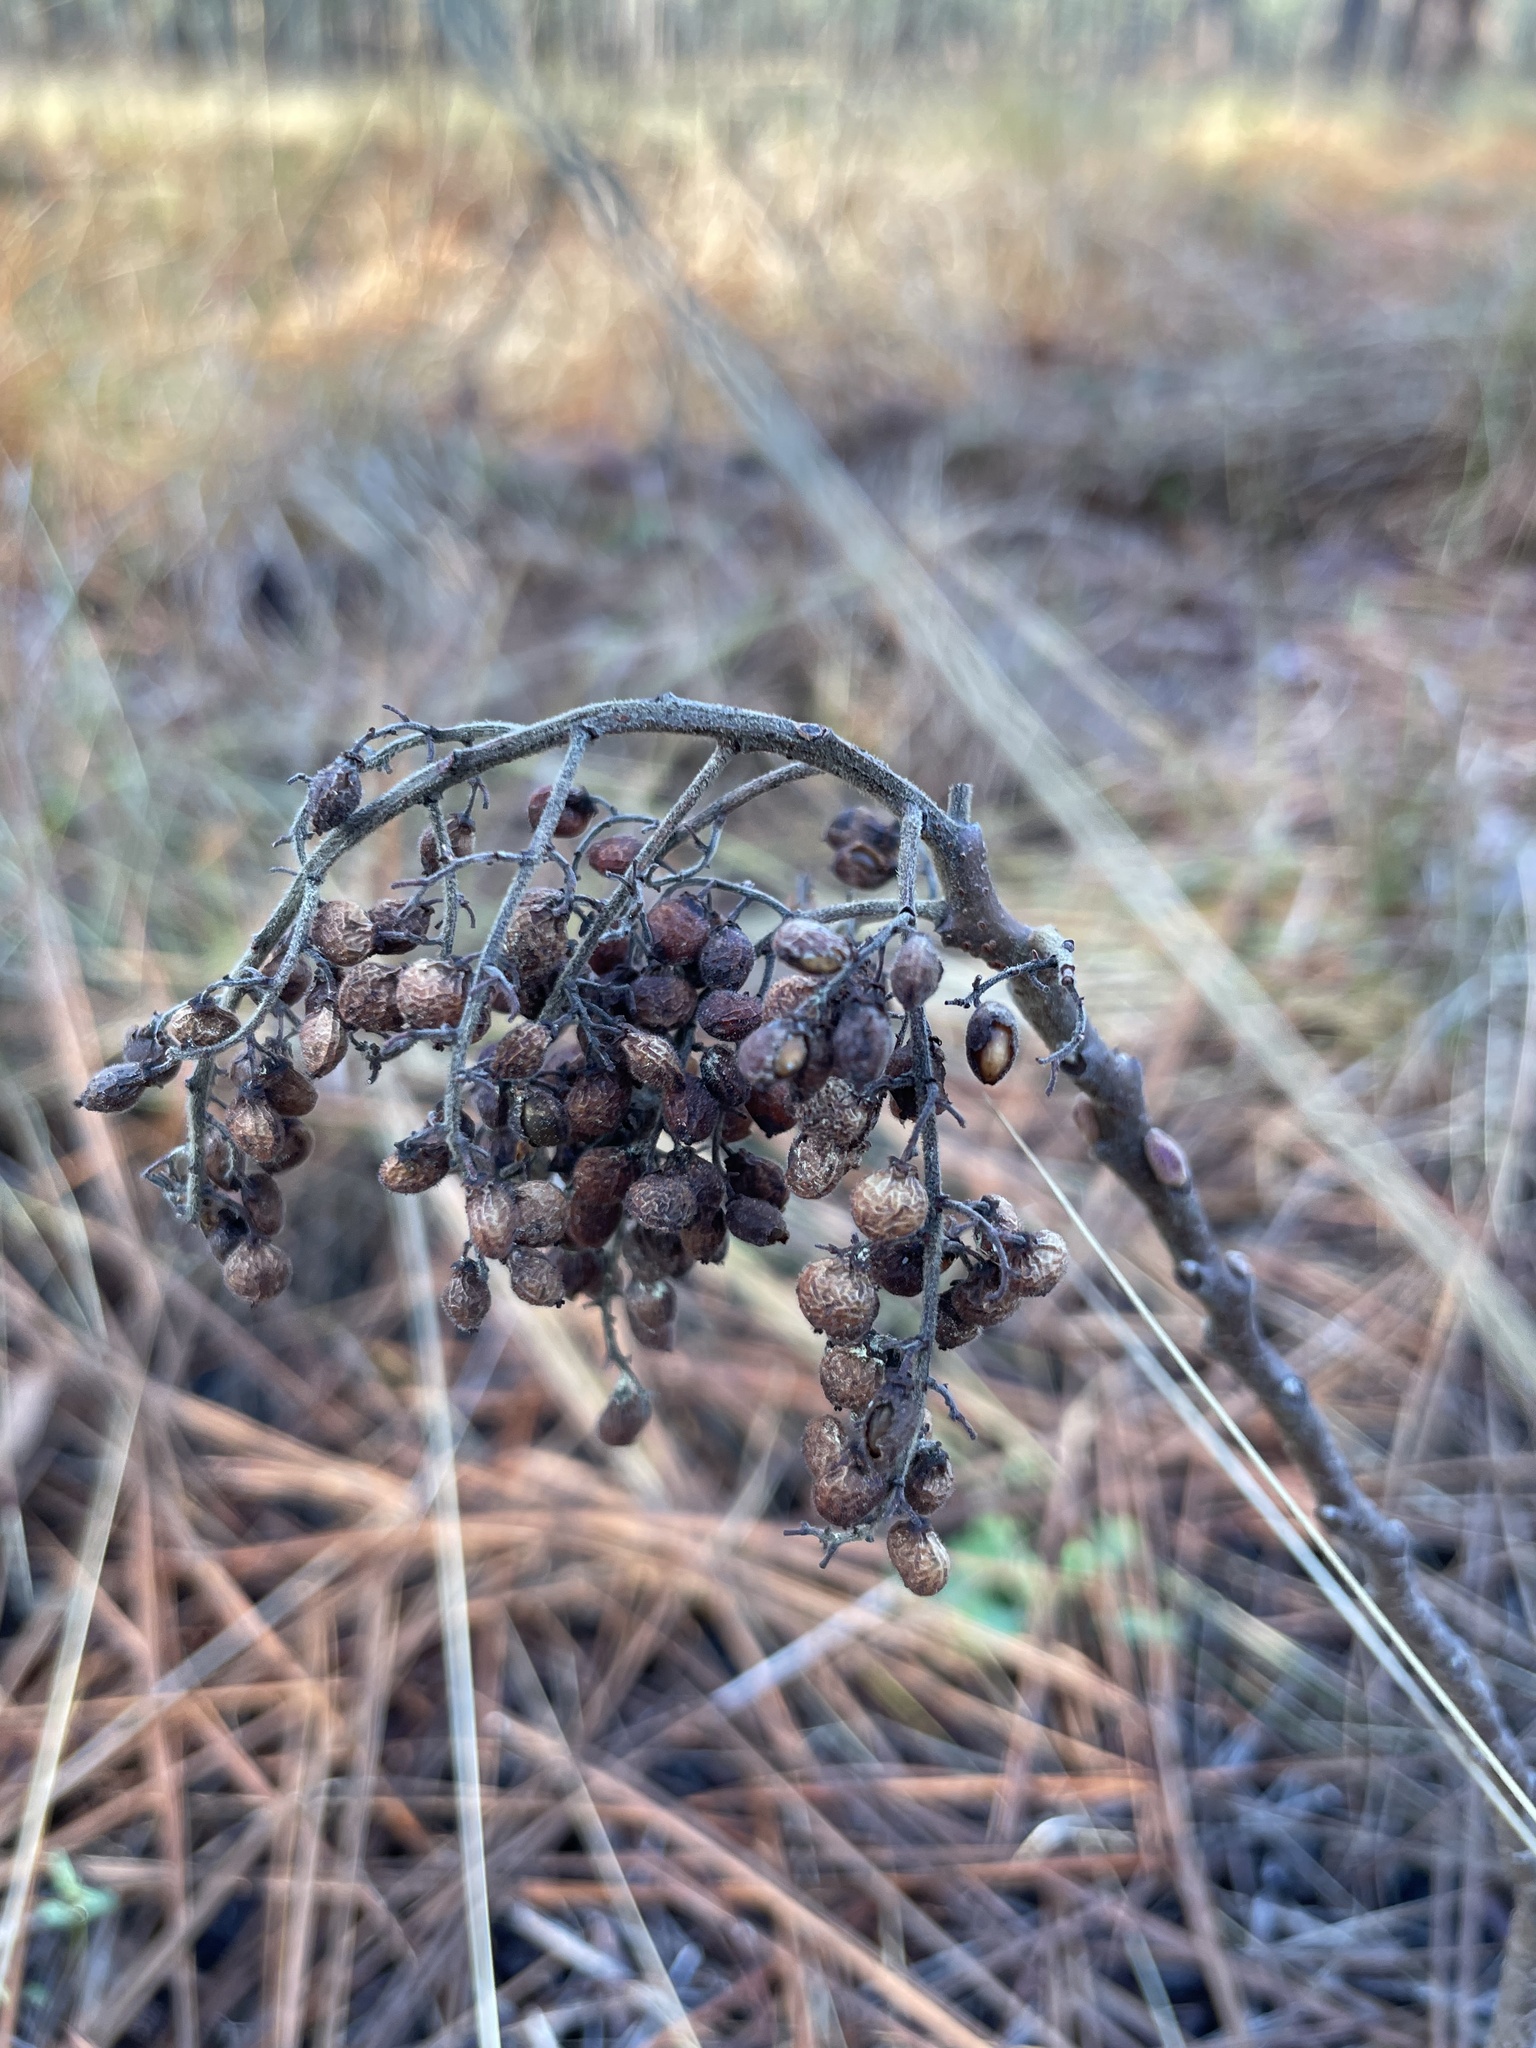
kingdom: Plantae
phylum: Tracheophyta
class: Magnoliopsida
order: Sapindales
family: Anacardiaceae
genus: Rhus
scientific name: Rhus michauxii
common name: Michaux's sumac
